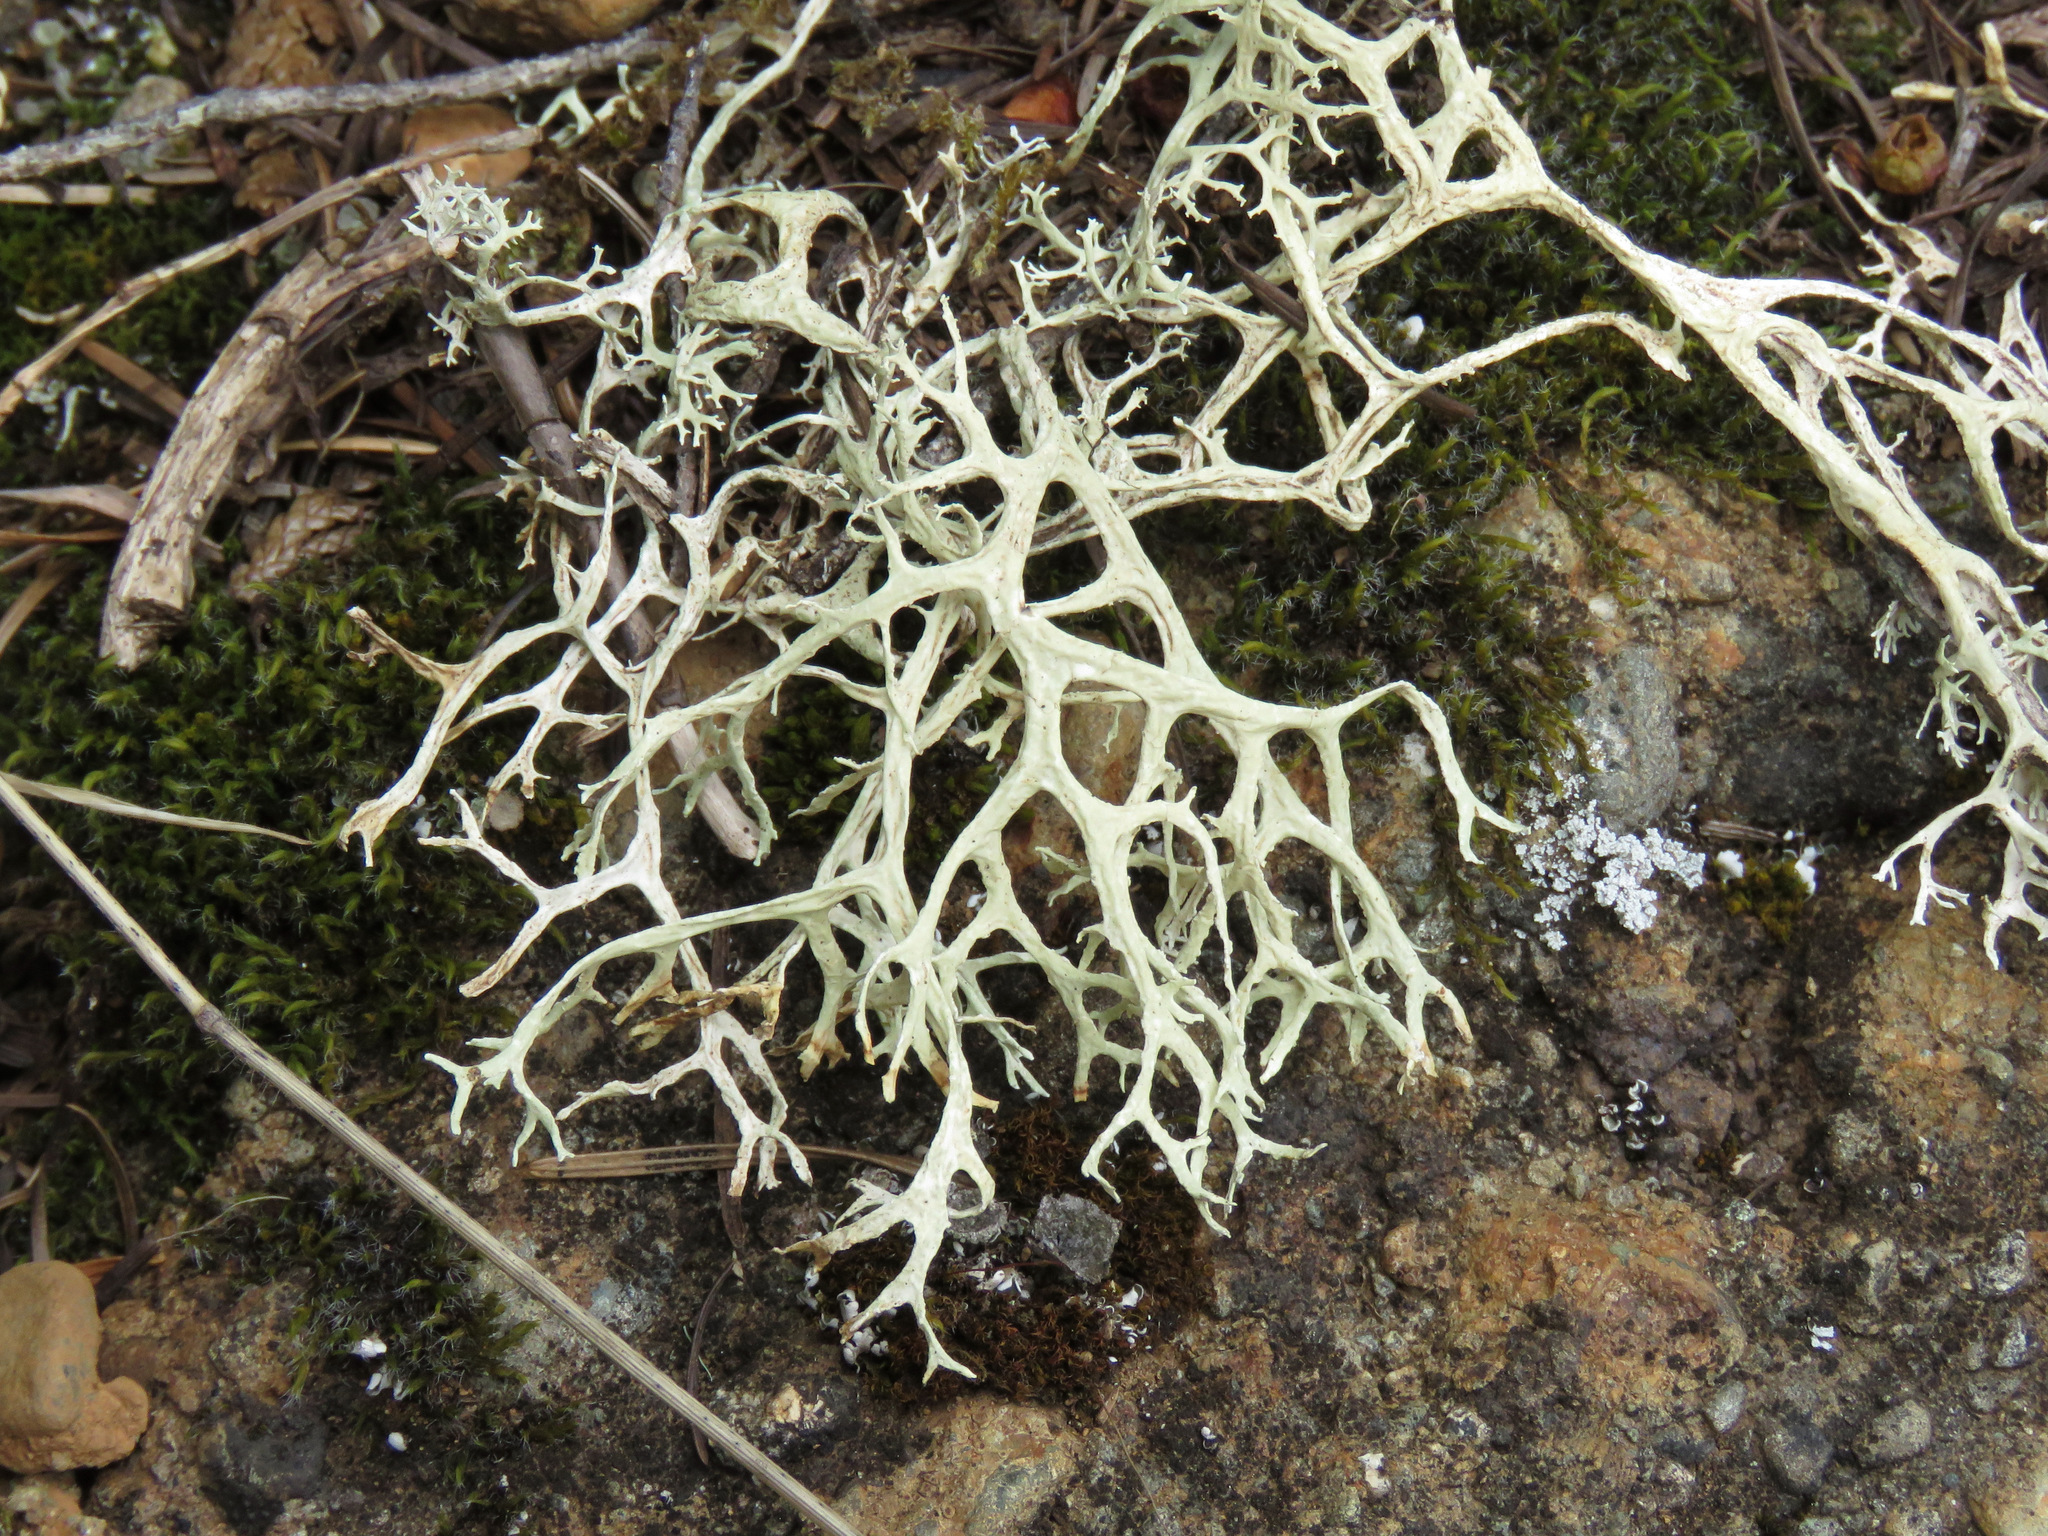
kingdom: Fungi
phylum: Ascomycota
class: Lecanoromycetes
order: Lecanorales
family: Parmeliaceae
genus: Evernia
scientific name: Evernia prunastri
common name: Oak moss
